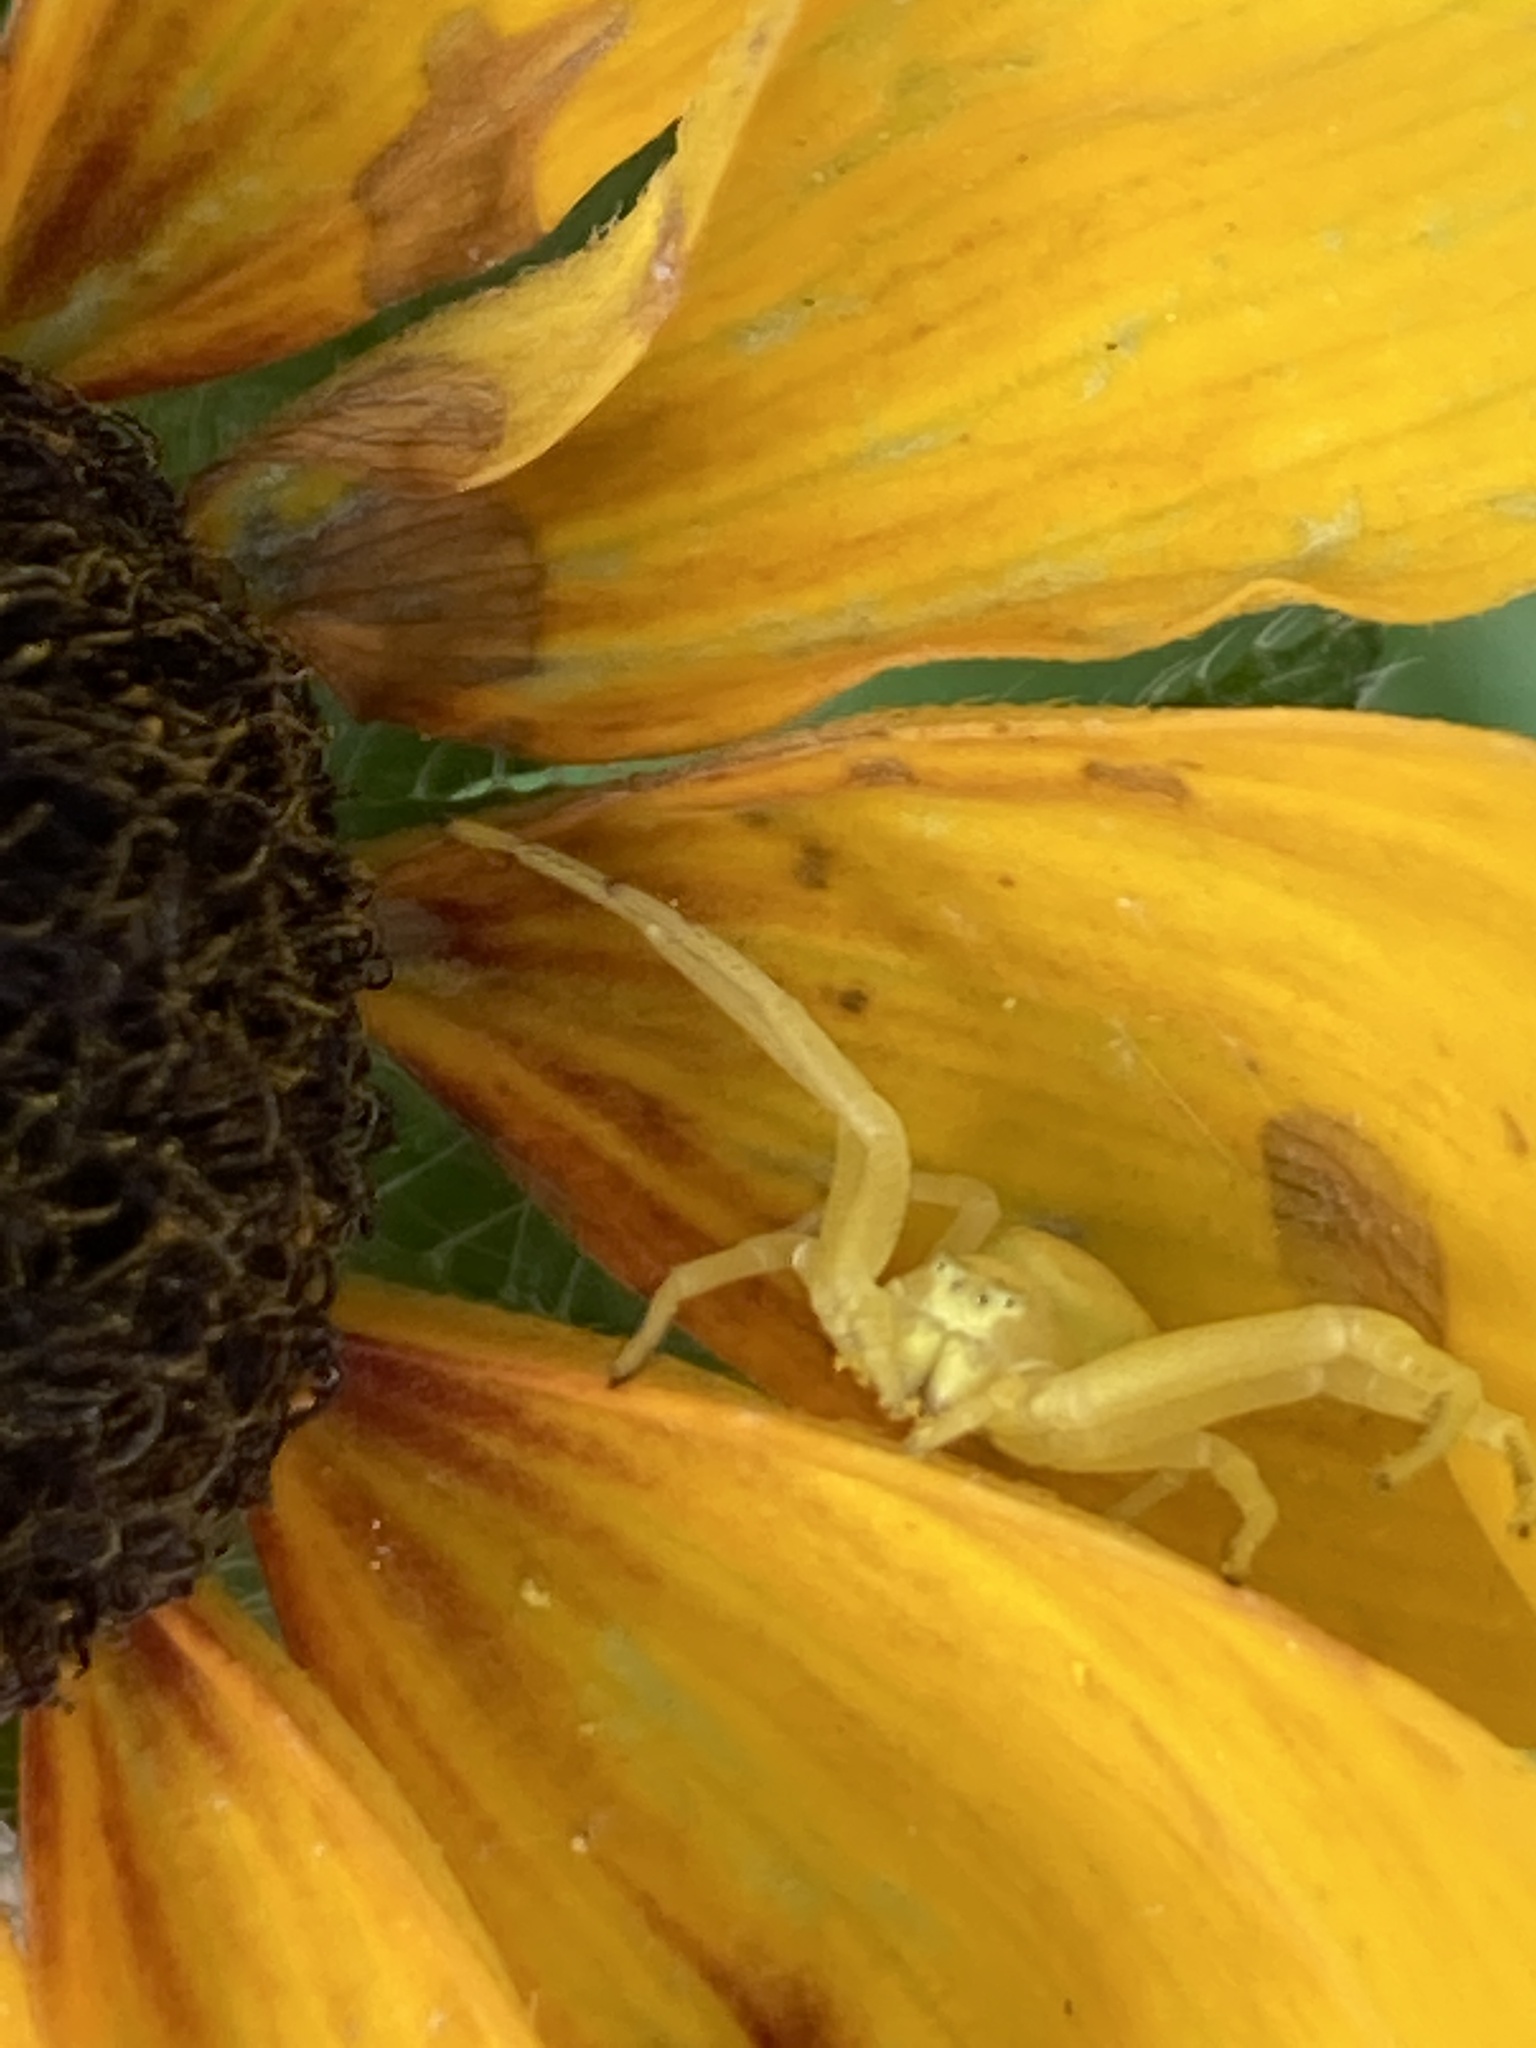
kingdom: Animalia
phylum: Arthropoda
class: Arachnida
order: Araneae
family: Thomisidae
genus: Misumena
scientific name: Misumena vatia
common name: Goldenrod crab spider
